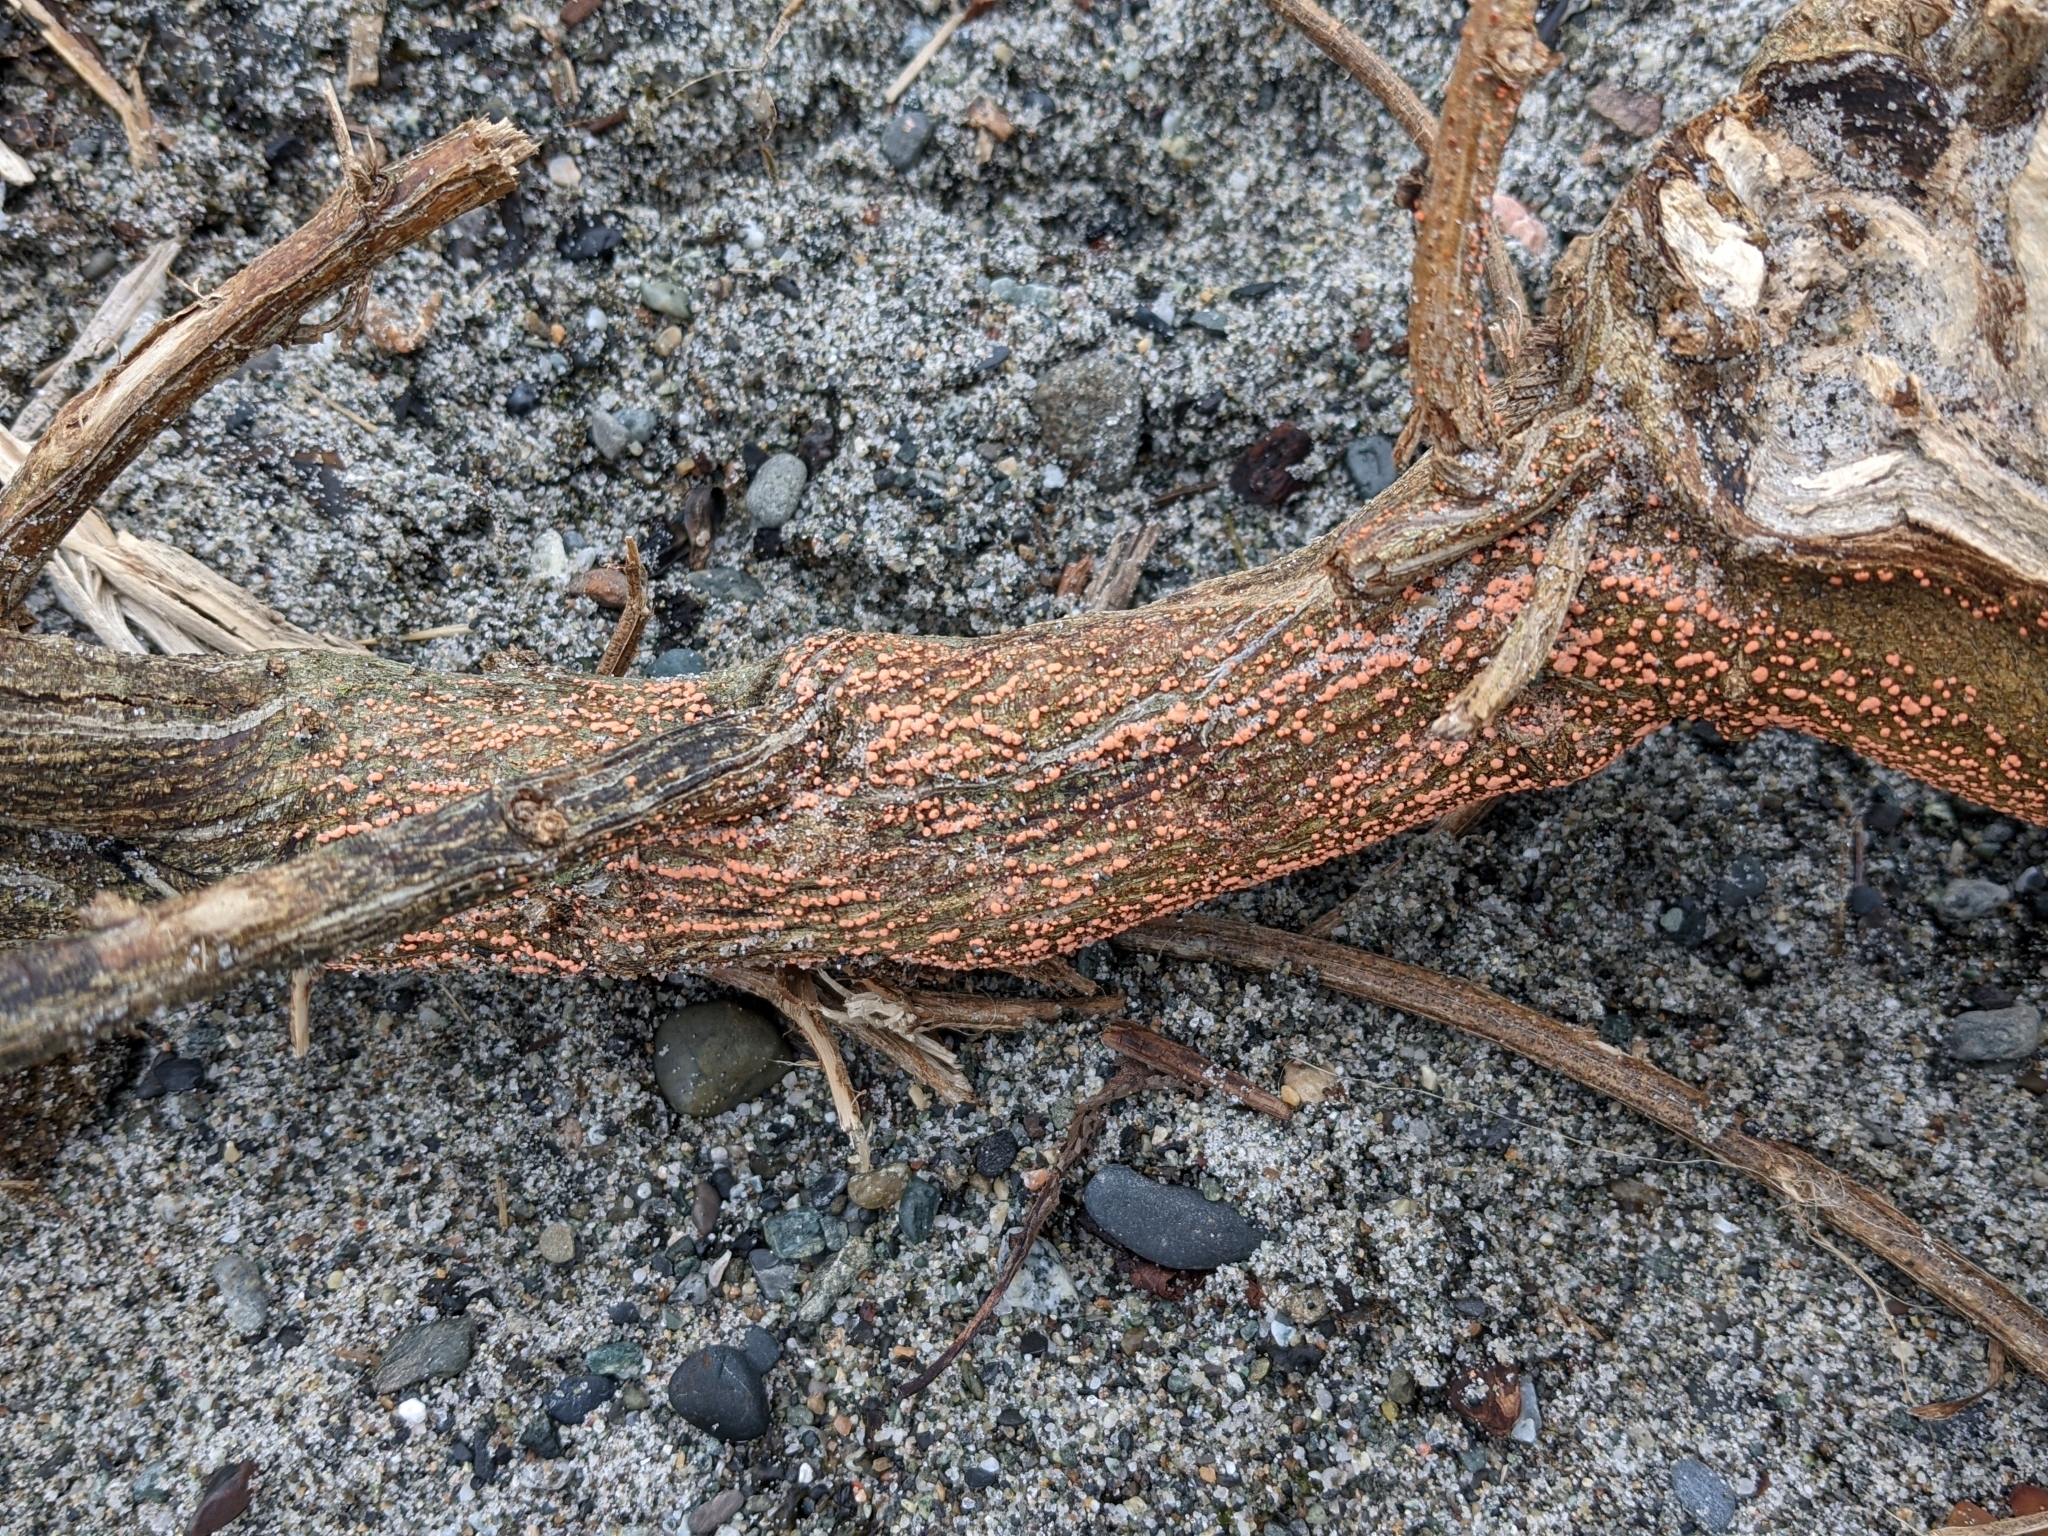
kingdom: Fungi
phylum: Ascomycota
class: Sordariomycetes
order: Hypocreales
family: Nectriaceae
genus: Nectria
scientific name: Nectria cinnabarina
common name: Coral spot
